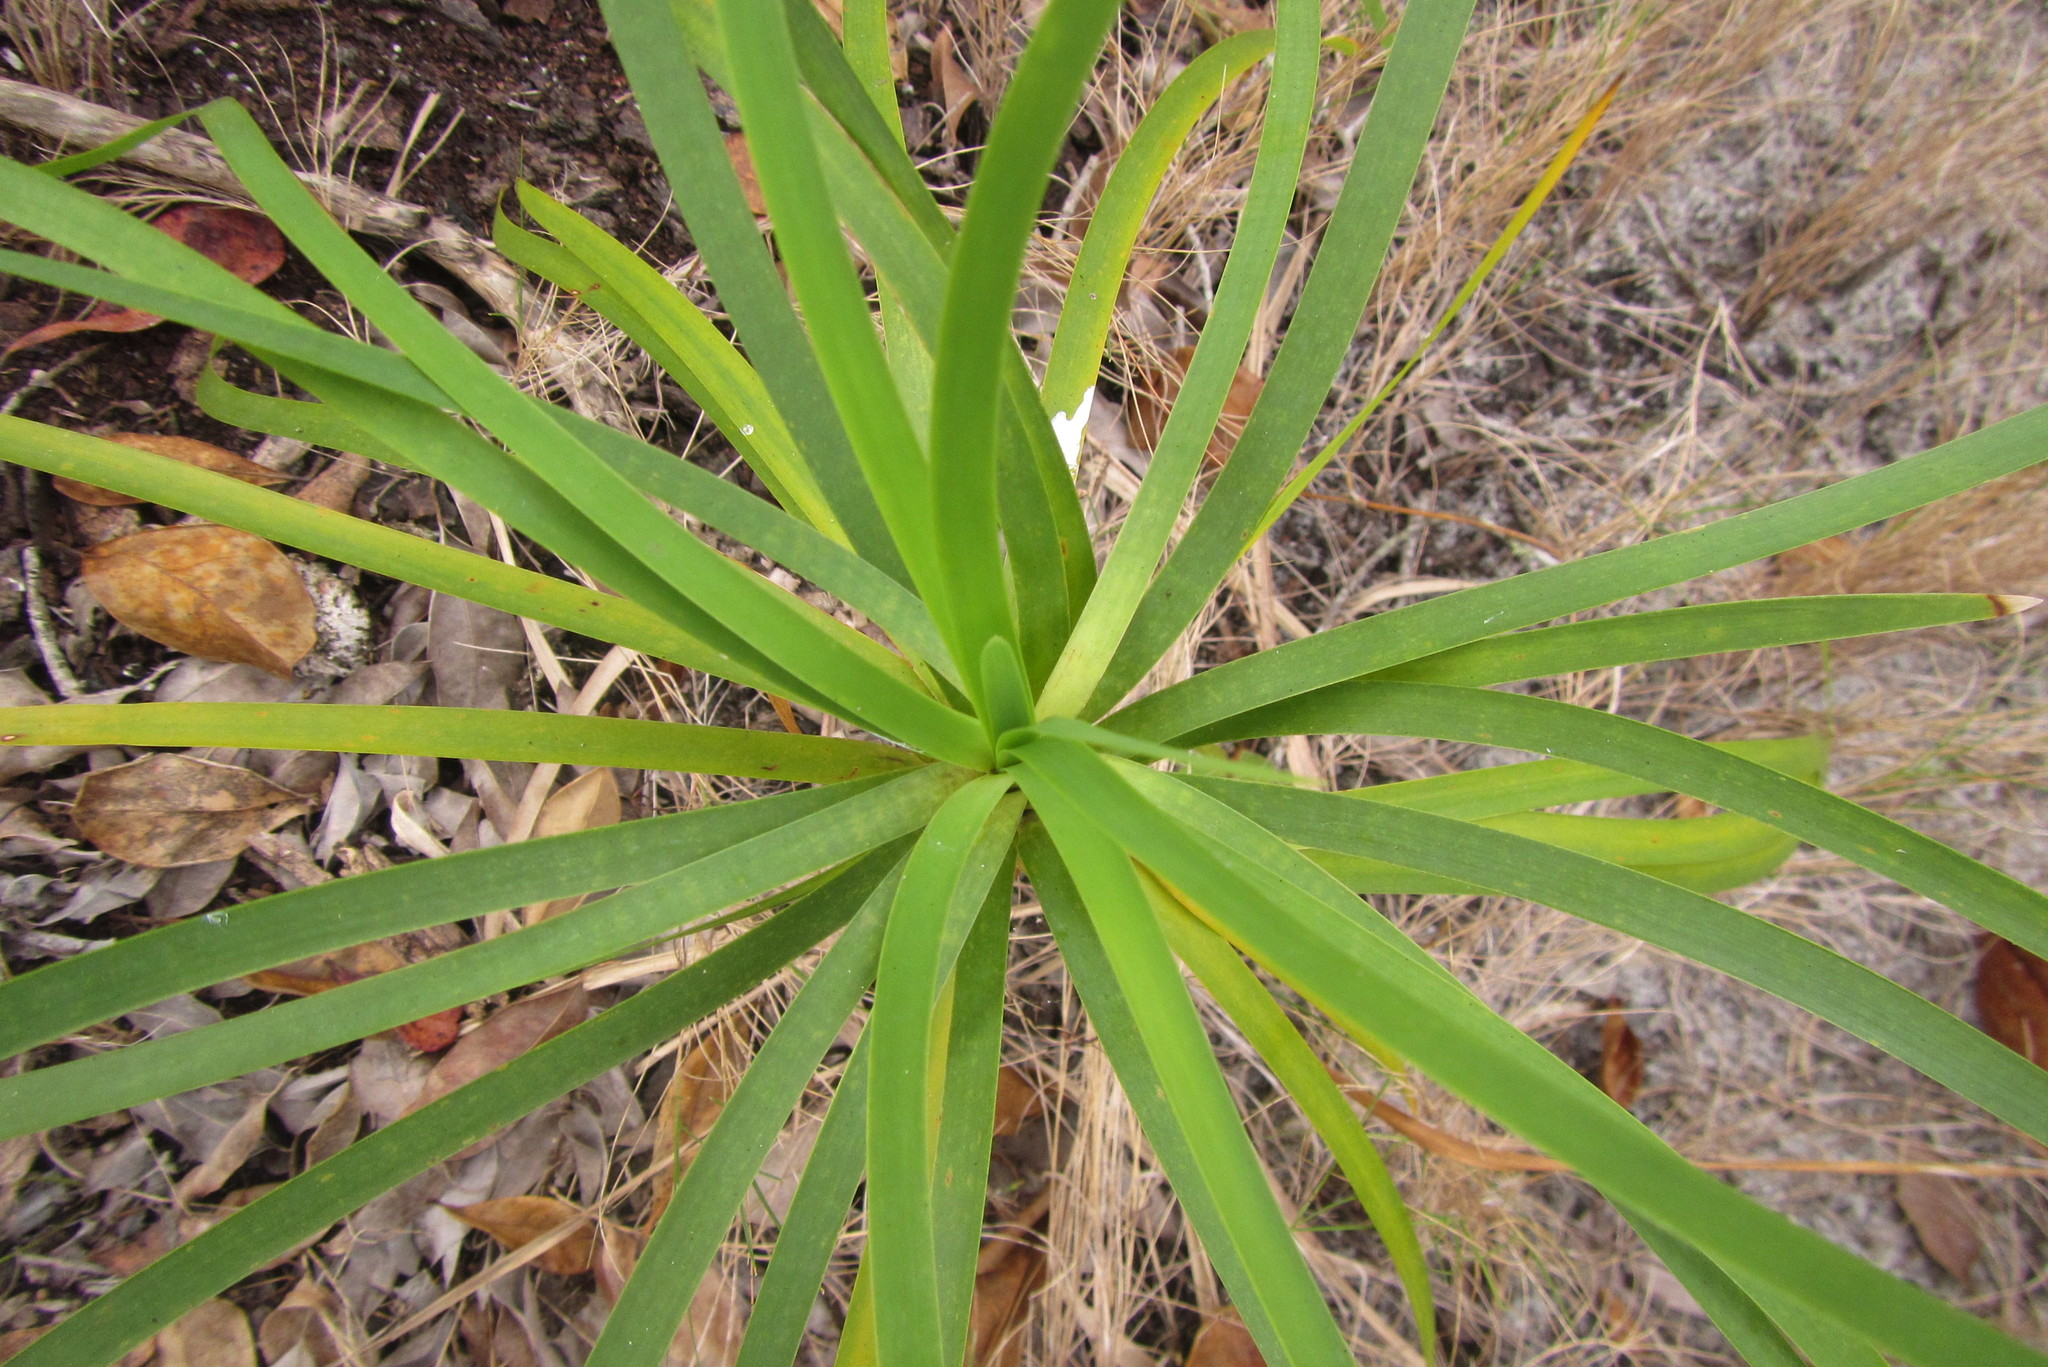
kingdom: Plantae
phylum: Tracheophyta
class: Liliopsida
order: Asparagales
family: Asparagaceae
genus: Lomandra
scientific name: Lomandra banksii
